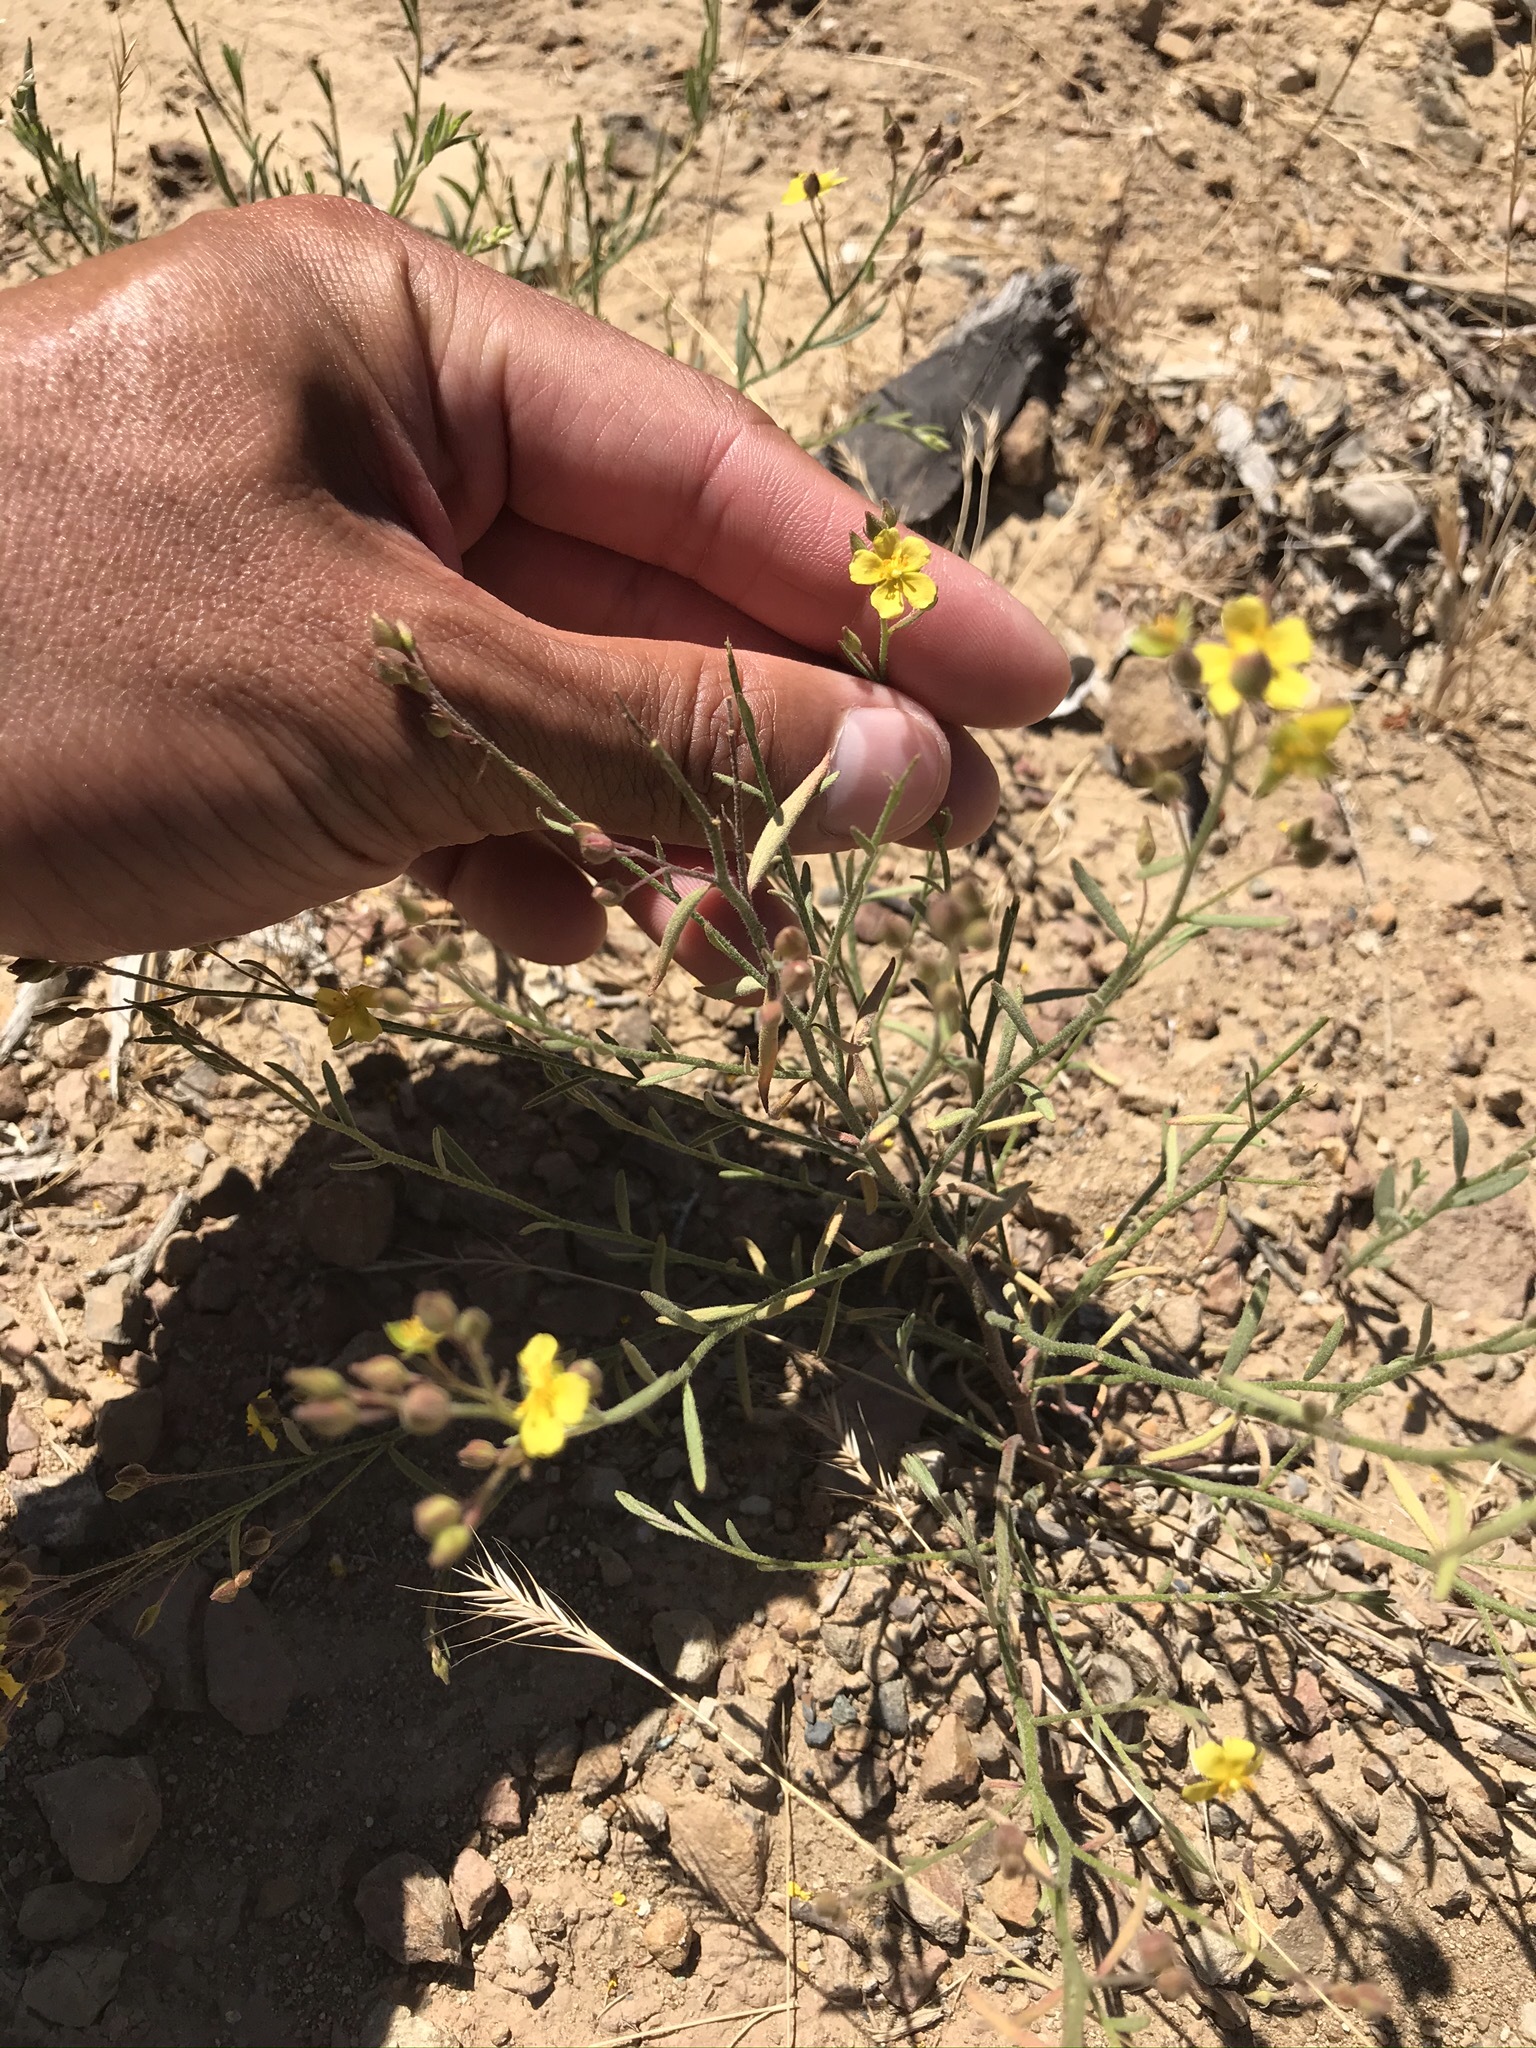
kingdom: Plantae
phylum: Tracheophyta
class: Magnoliopsida
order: Malvales
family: Cistaceae
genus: Crocanthemum
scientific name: Crocanthemum scoparium
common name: Broom-rose
